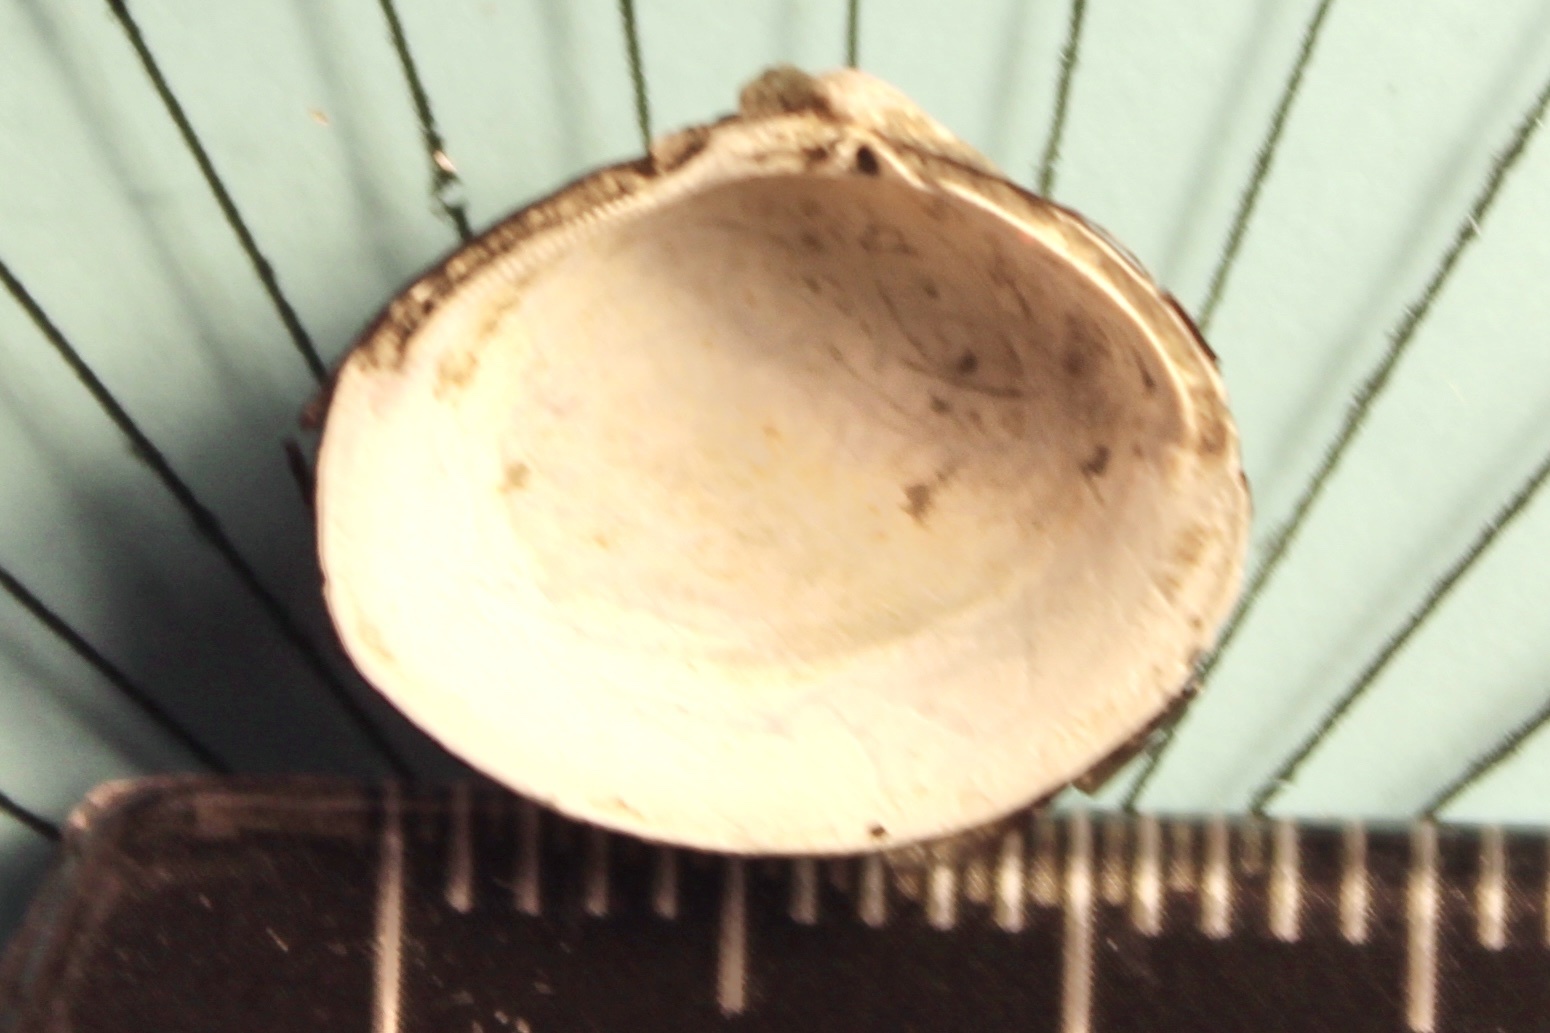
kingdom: Animalia
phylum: Mollusca
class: Bivalvia
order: Venerida
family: Cyrenidae
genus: Corbicula
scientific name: Corbicula fluminea
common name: Asian clam
